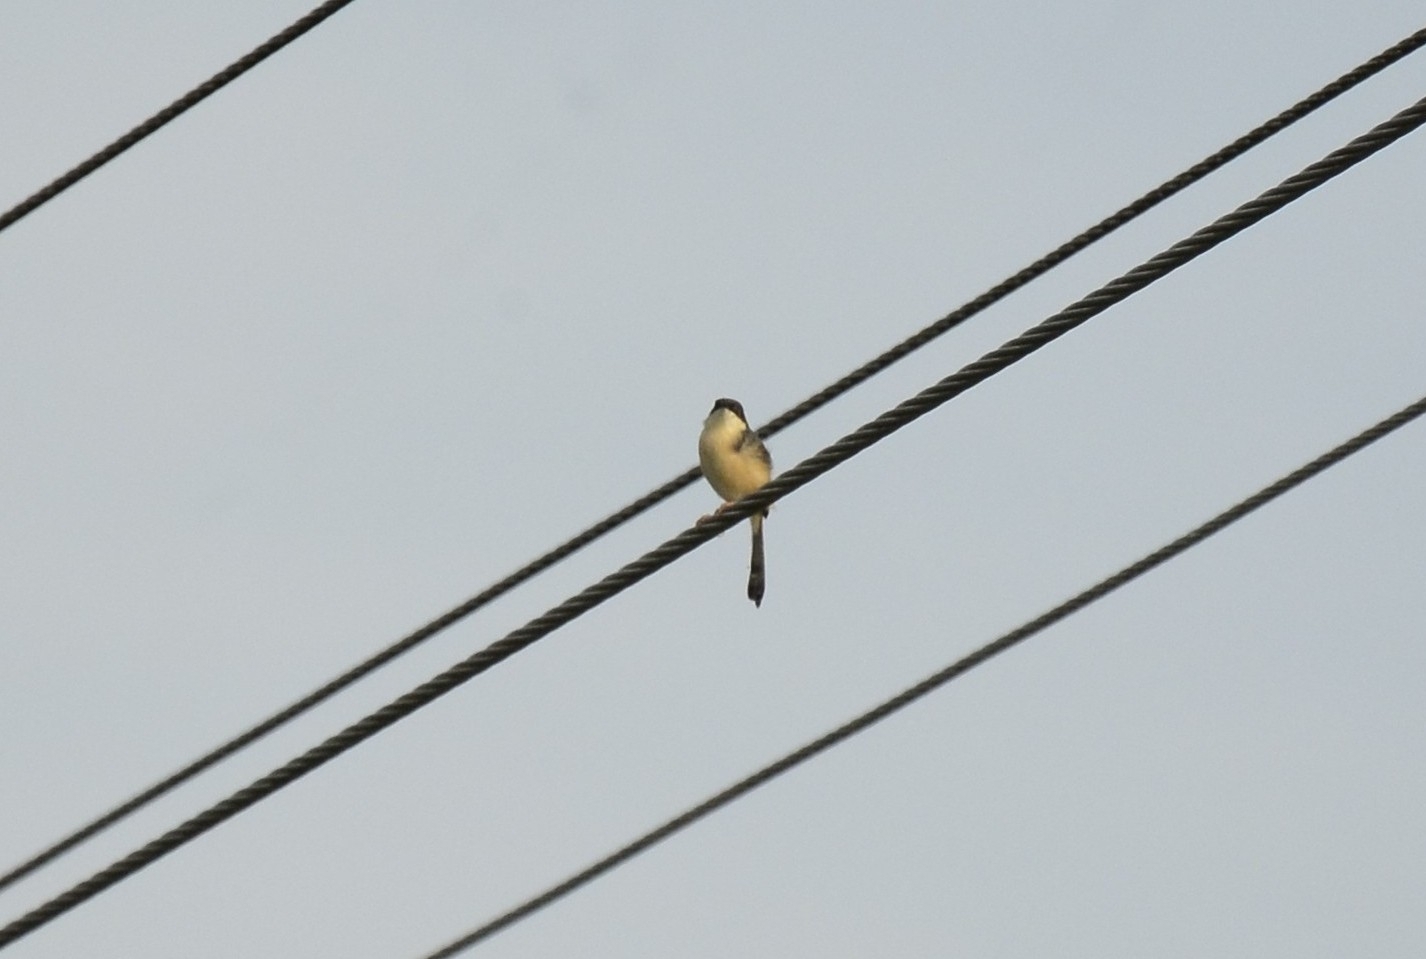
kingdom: Animalia
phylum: Chordata
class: Aves
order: Passeriformes
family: Cisticolidae
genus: Prinia
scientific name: Prinia socialis
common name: Ashy prinia
